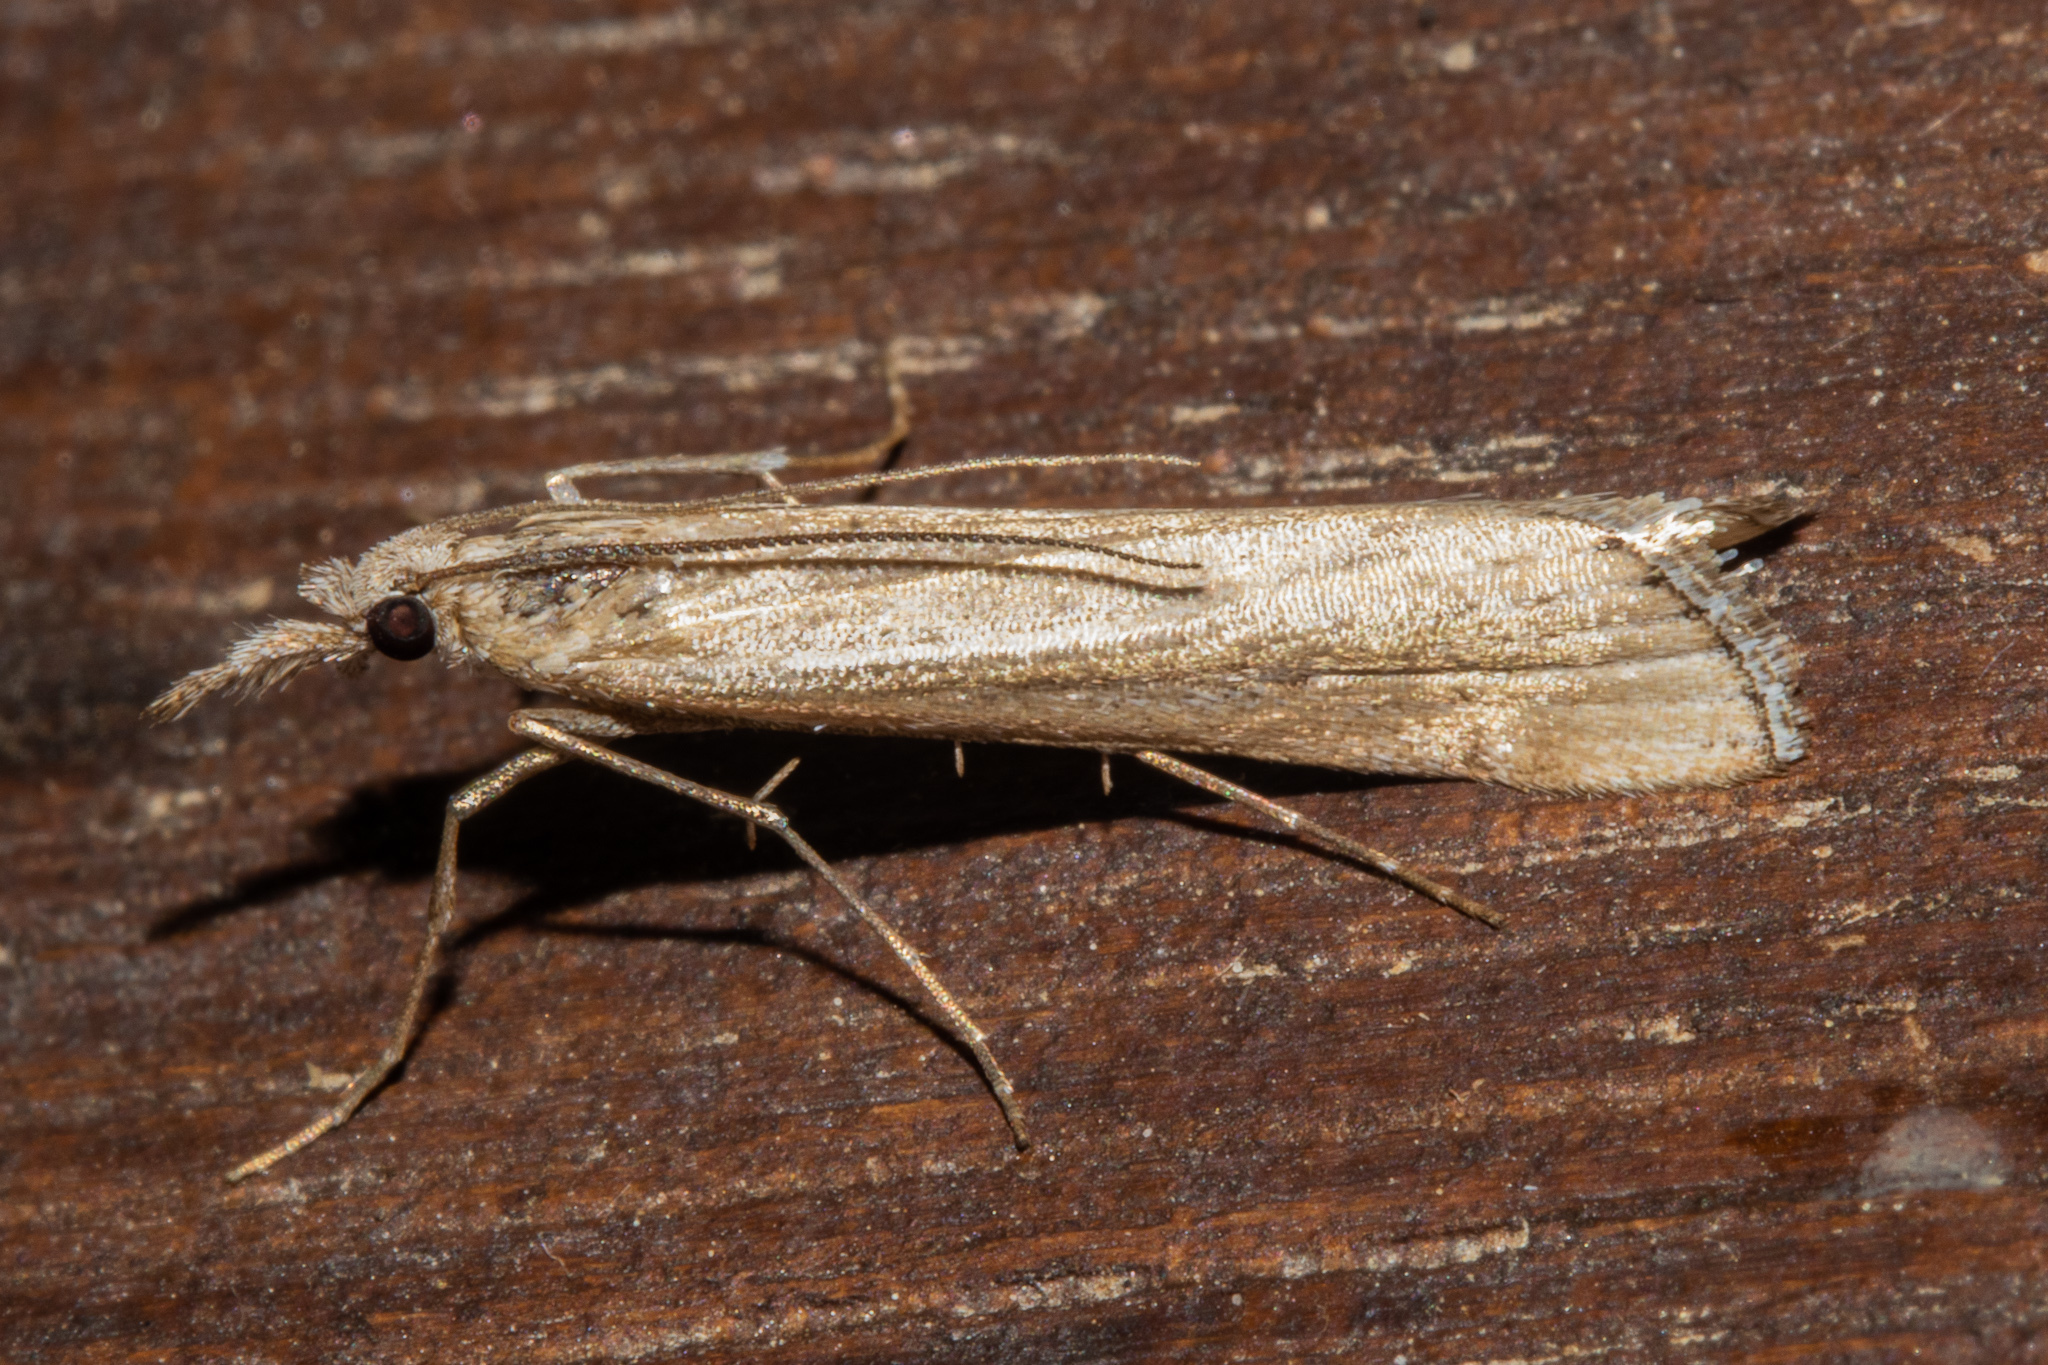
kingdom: Animalia
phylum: Arthropoda
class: Insecta
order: Lepidoptera
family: Crambidae
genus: Orocrambus
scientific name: Orocrambus cyclopicus
